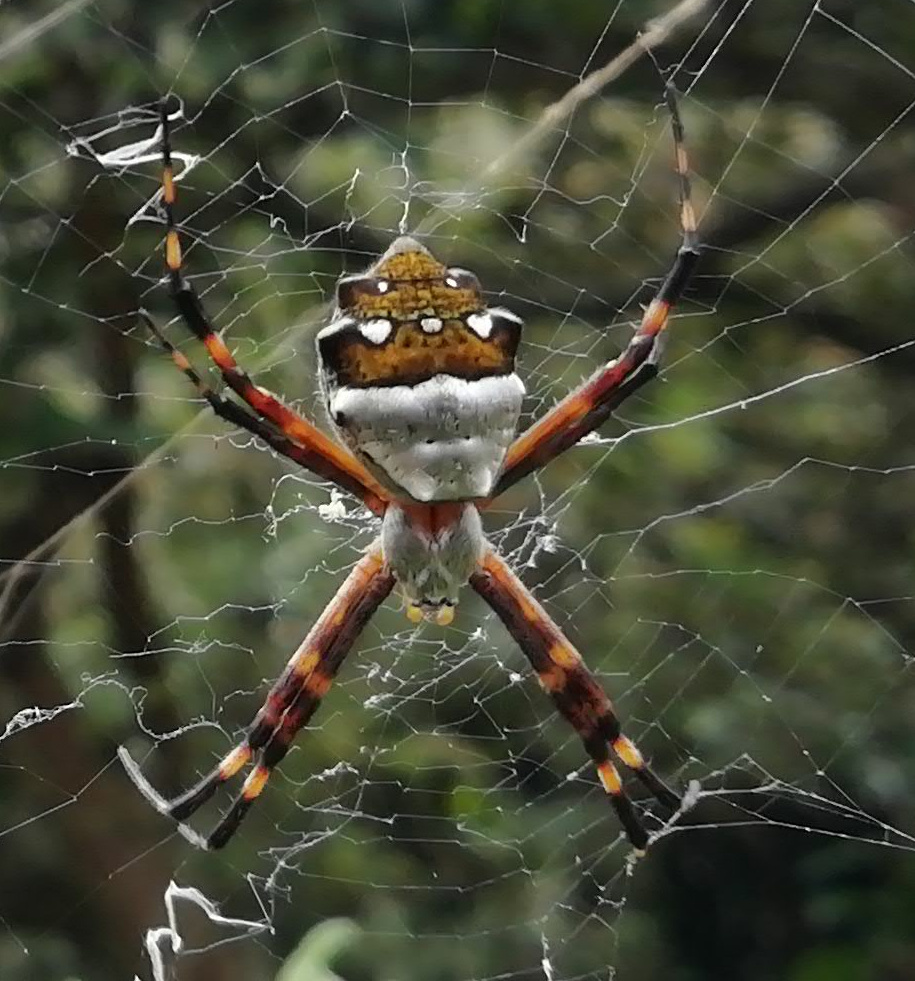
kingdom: Animalia
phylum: Arthropoda
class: Arachnida
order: Araneae
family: Araneidae
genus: Argiope
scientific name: Argiope argentata
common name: Orb weavers
